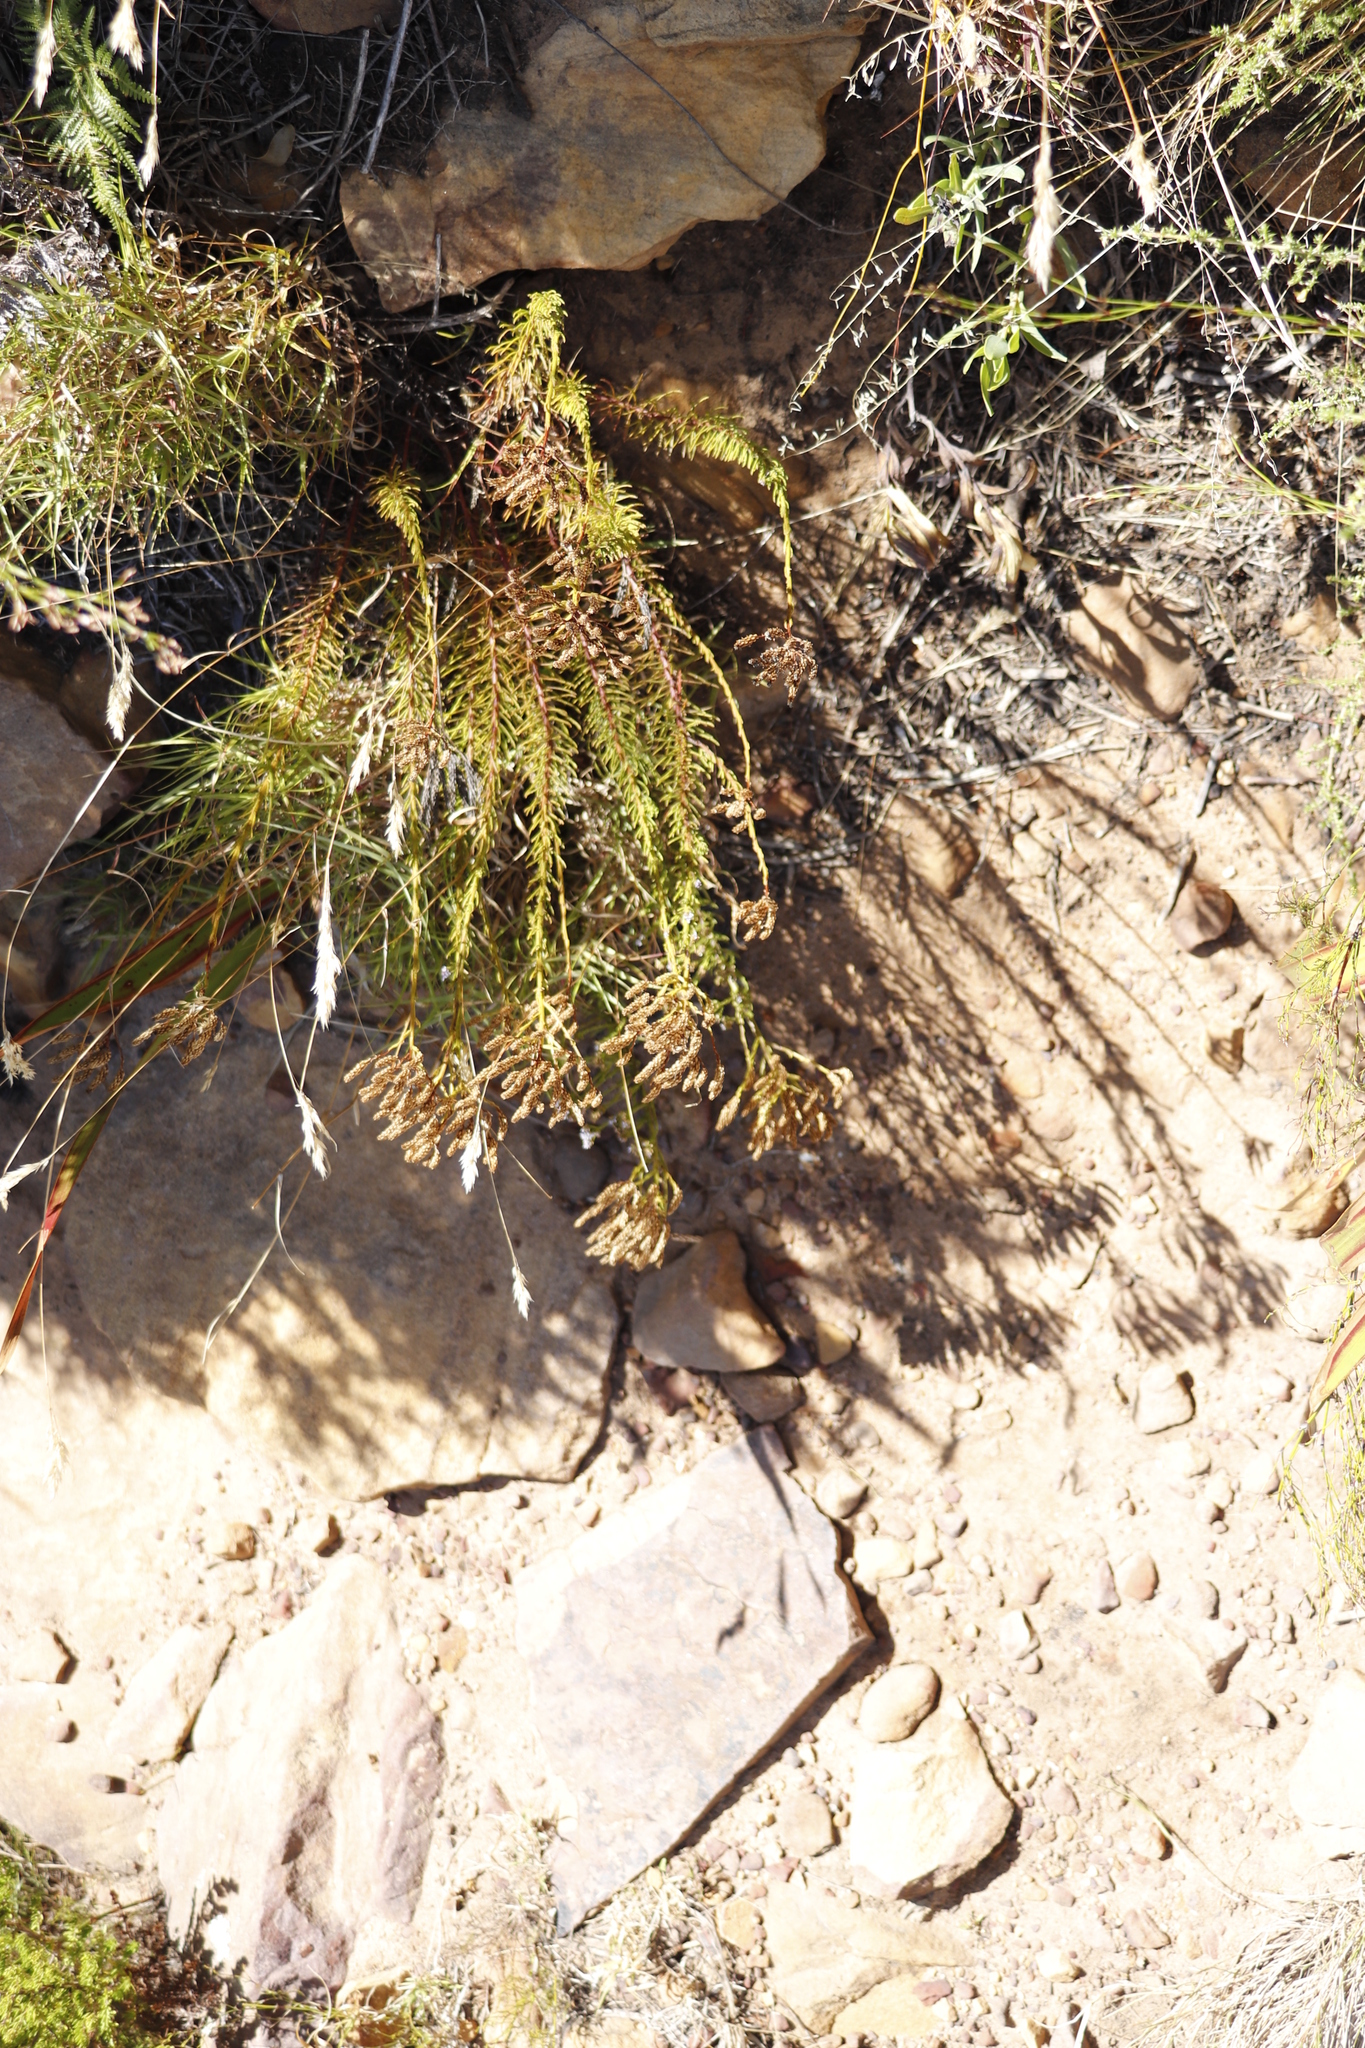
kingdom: Plantae
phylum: Tracheophyta
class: Magnoliopsida
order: Lamiales
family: Scrophulariaceae
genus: Pseudoselago
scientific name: Pseudoselago spuria
